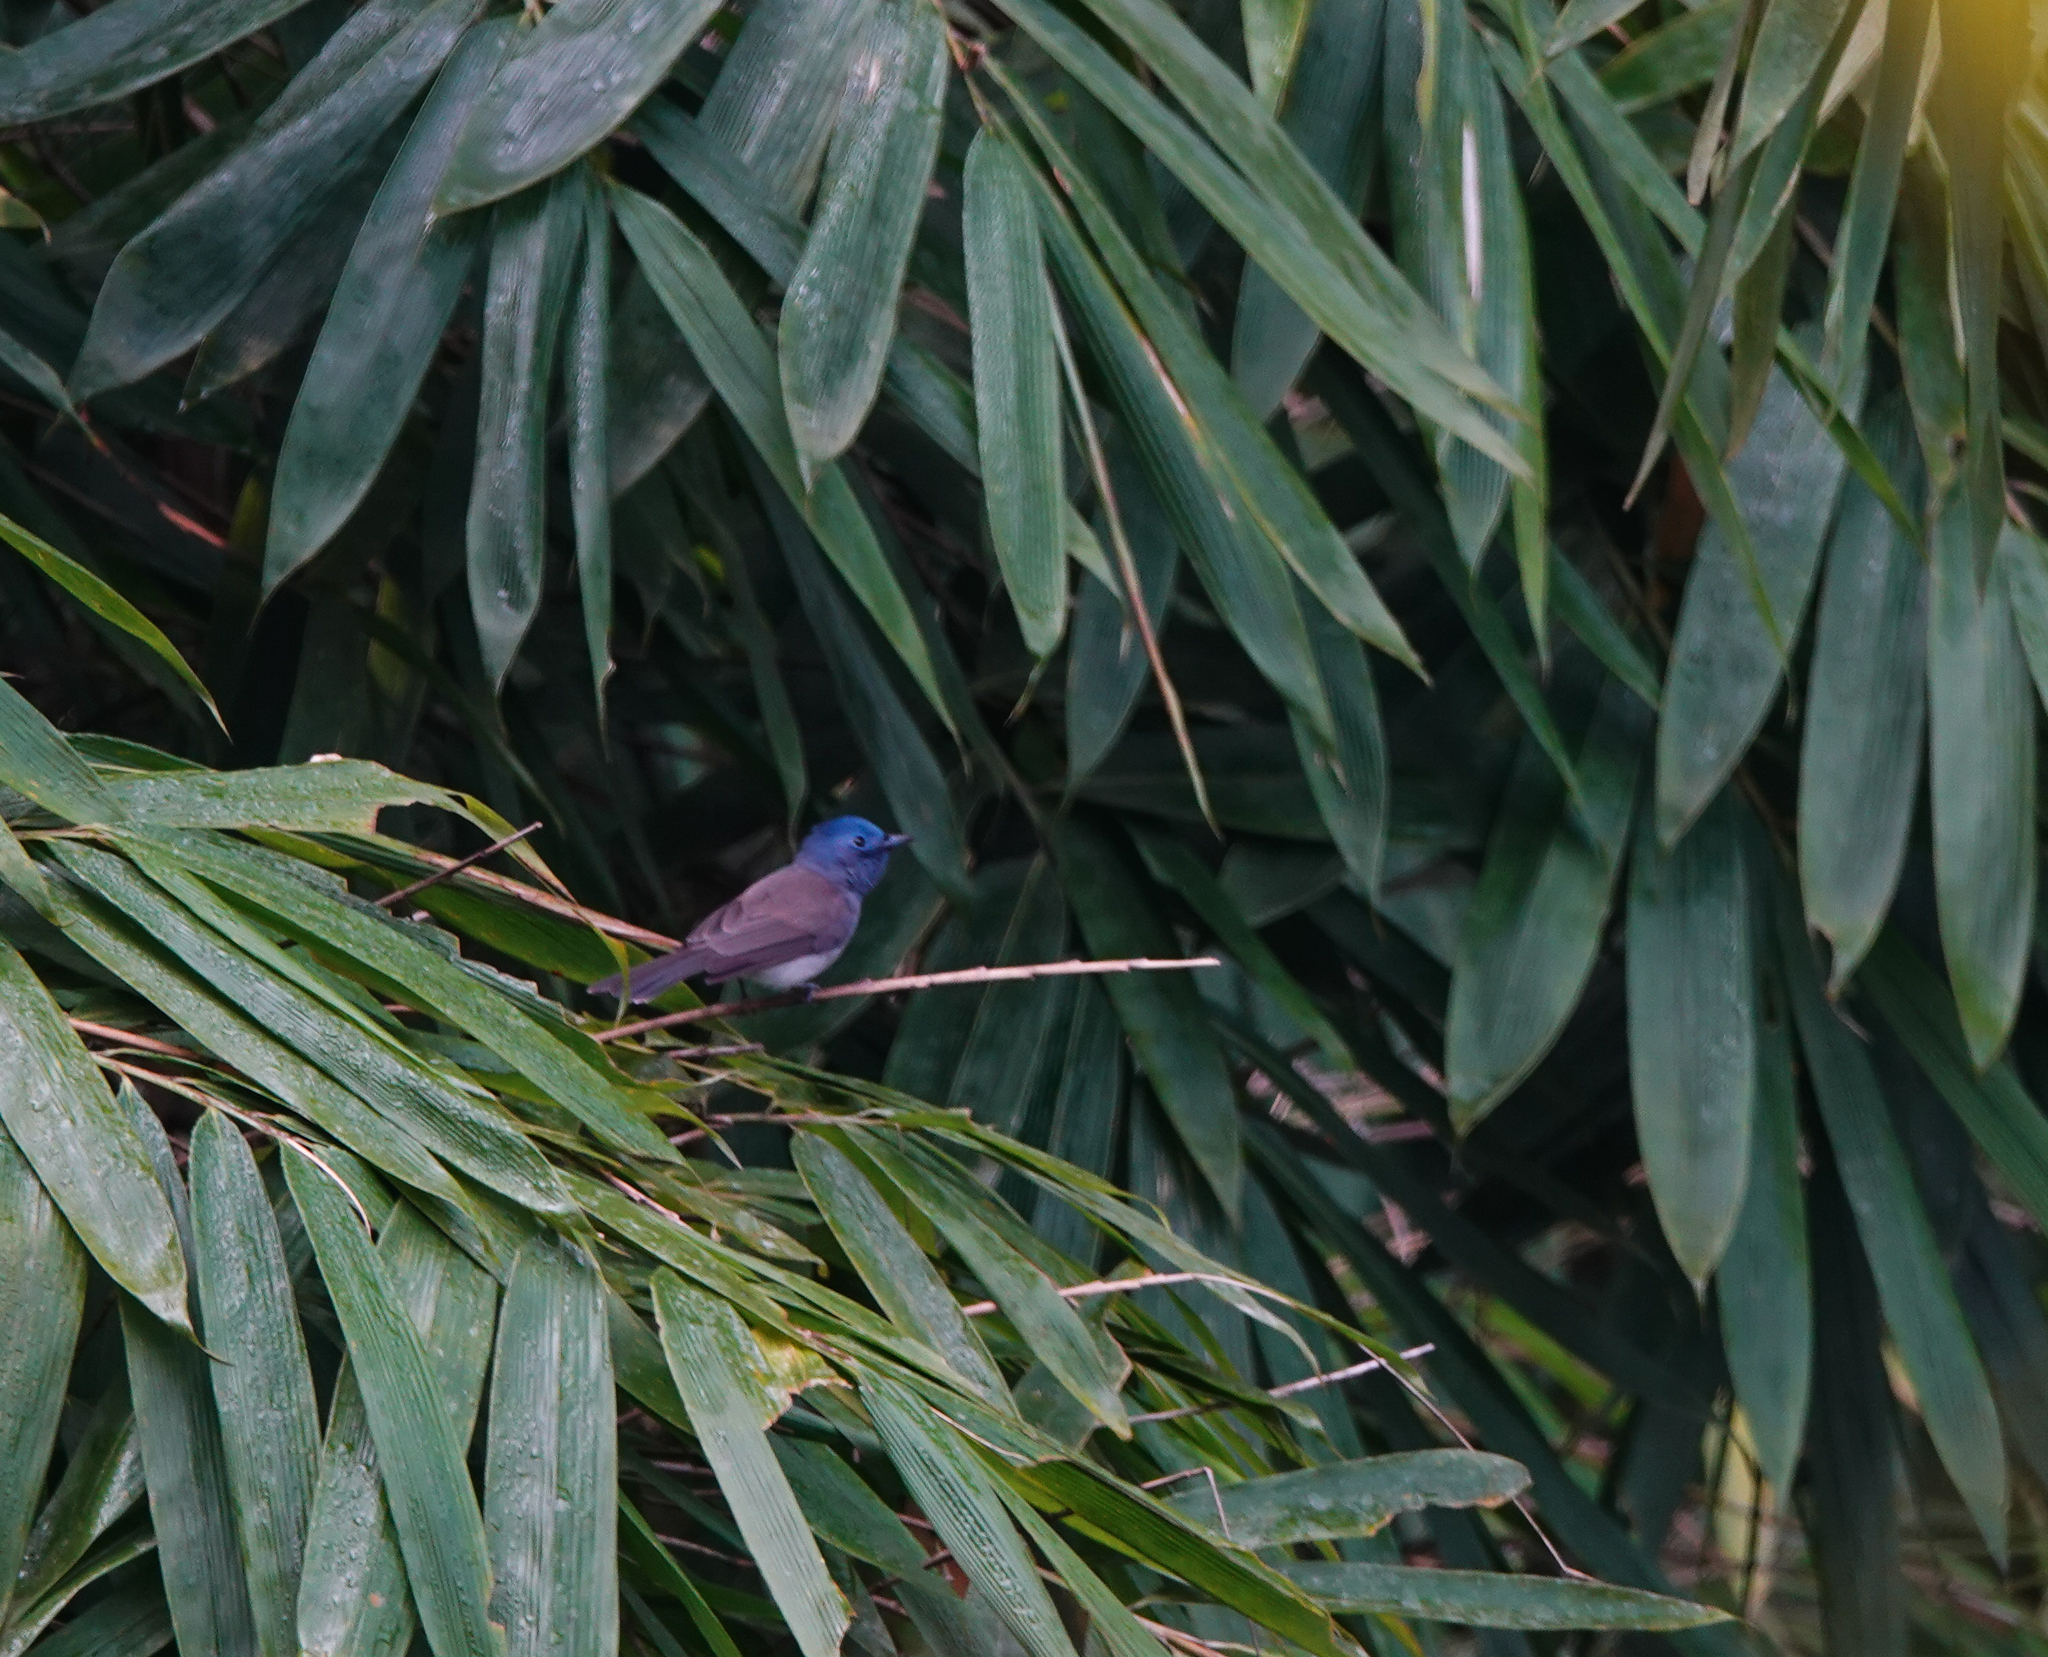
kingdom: Animalia
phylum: Chordata
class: Aves
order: Passeriformes
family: Monarchidae
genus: Hypothymis
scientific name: Hypothymis azurea
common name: Black-naped monarch
